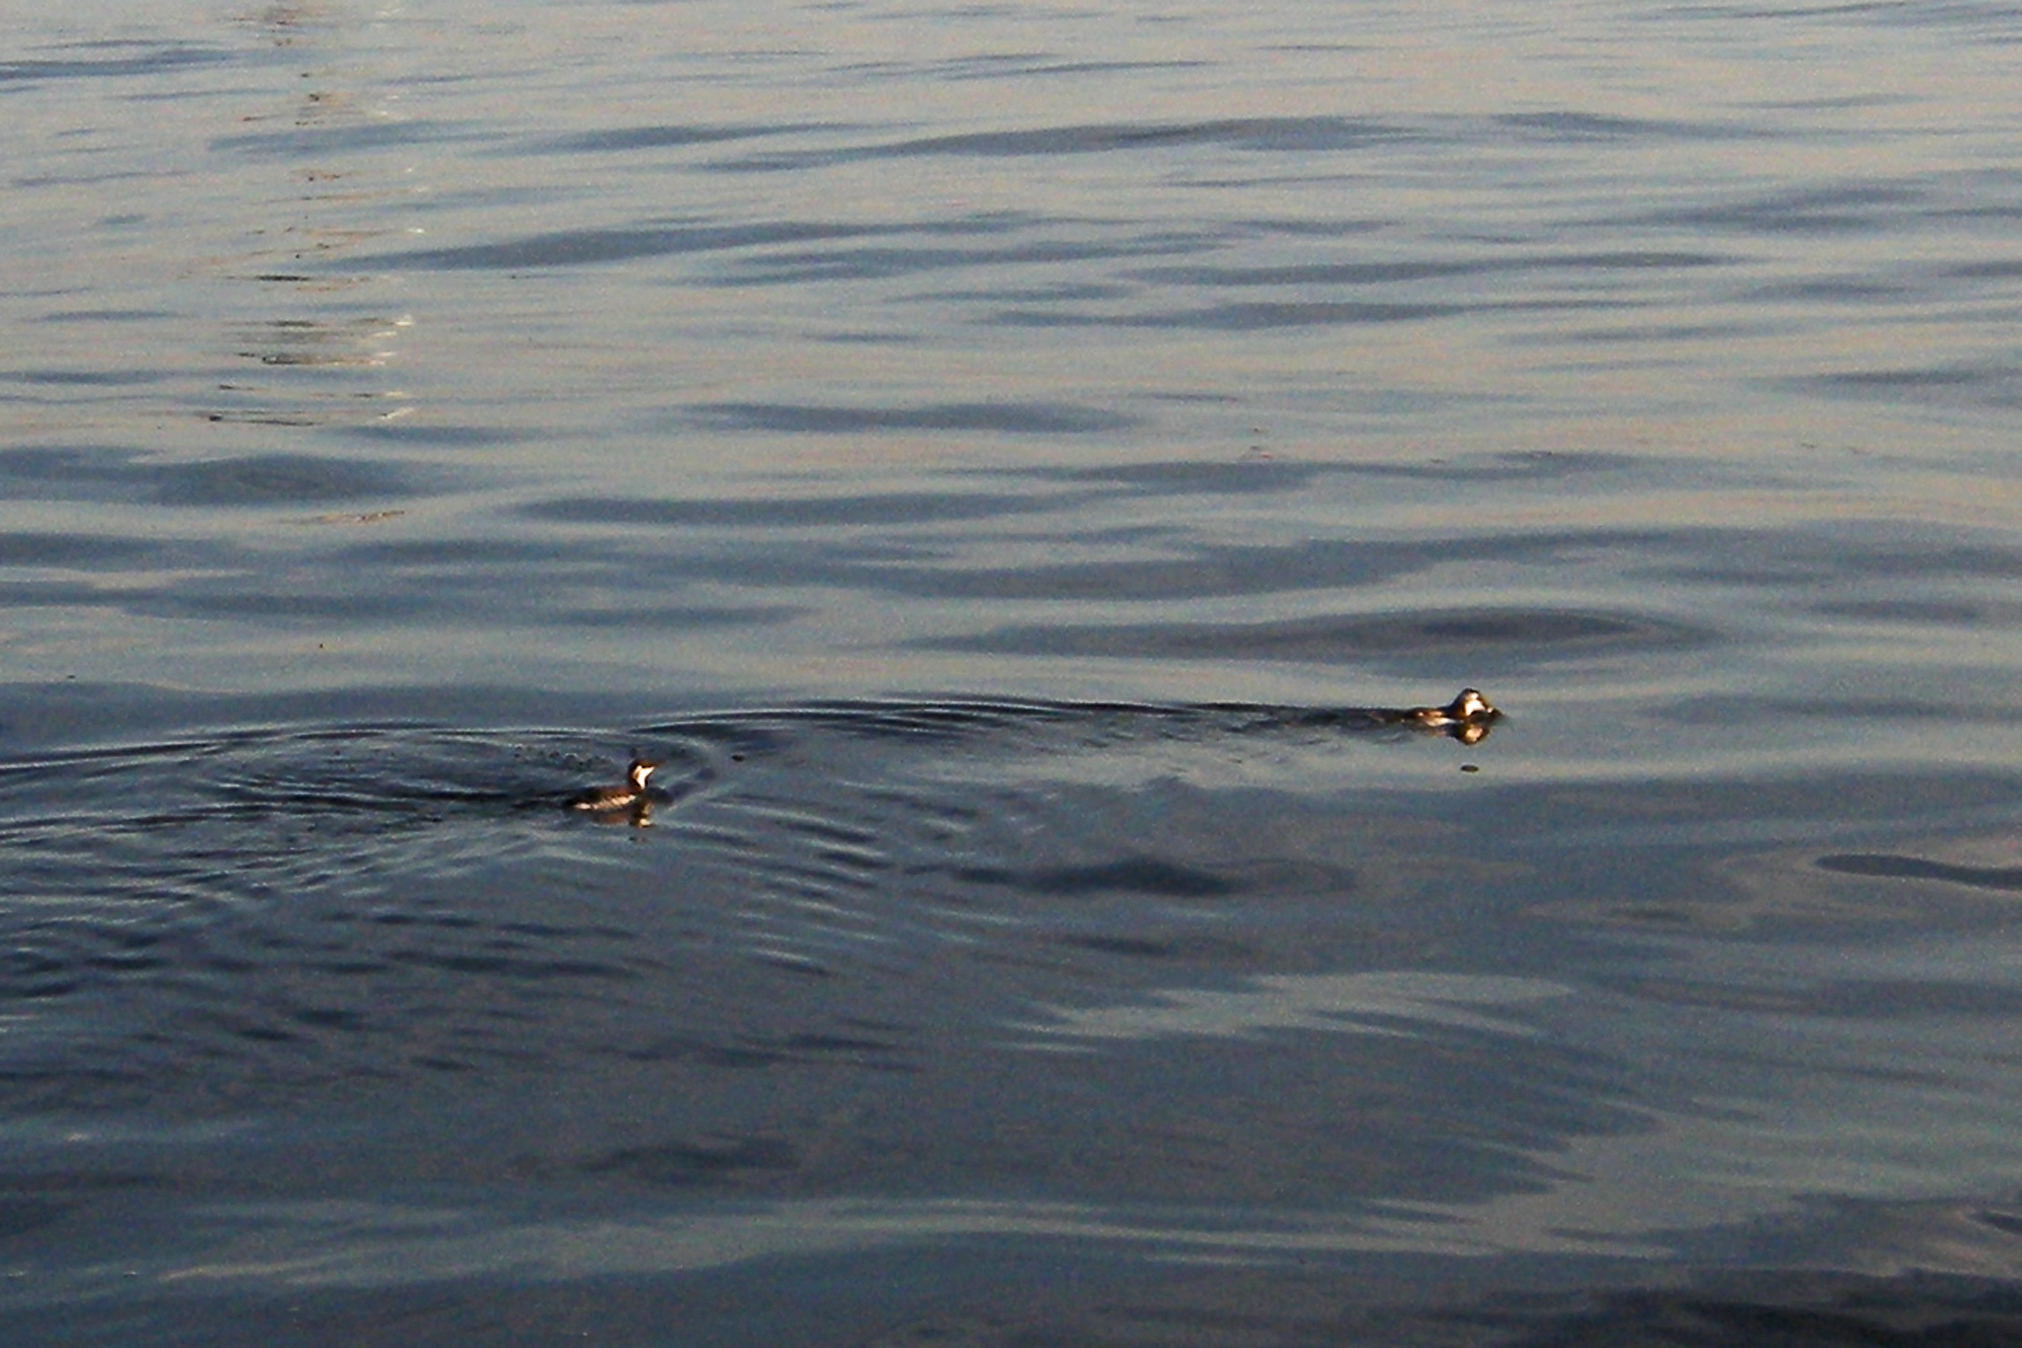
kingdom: Animalia
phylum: Chordata
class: Aves
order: Charadriiformes
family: Alcidae
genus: Uria
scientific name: Uria aalge
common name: Common murre
